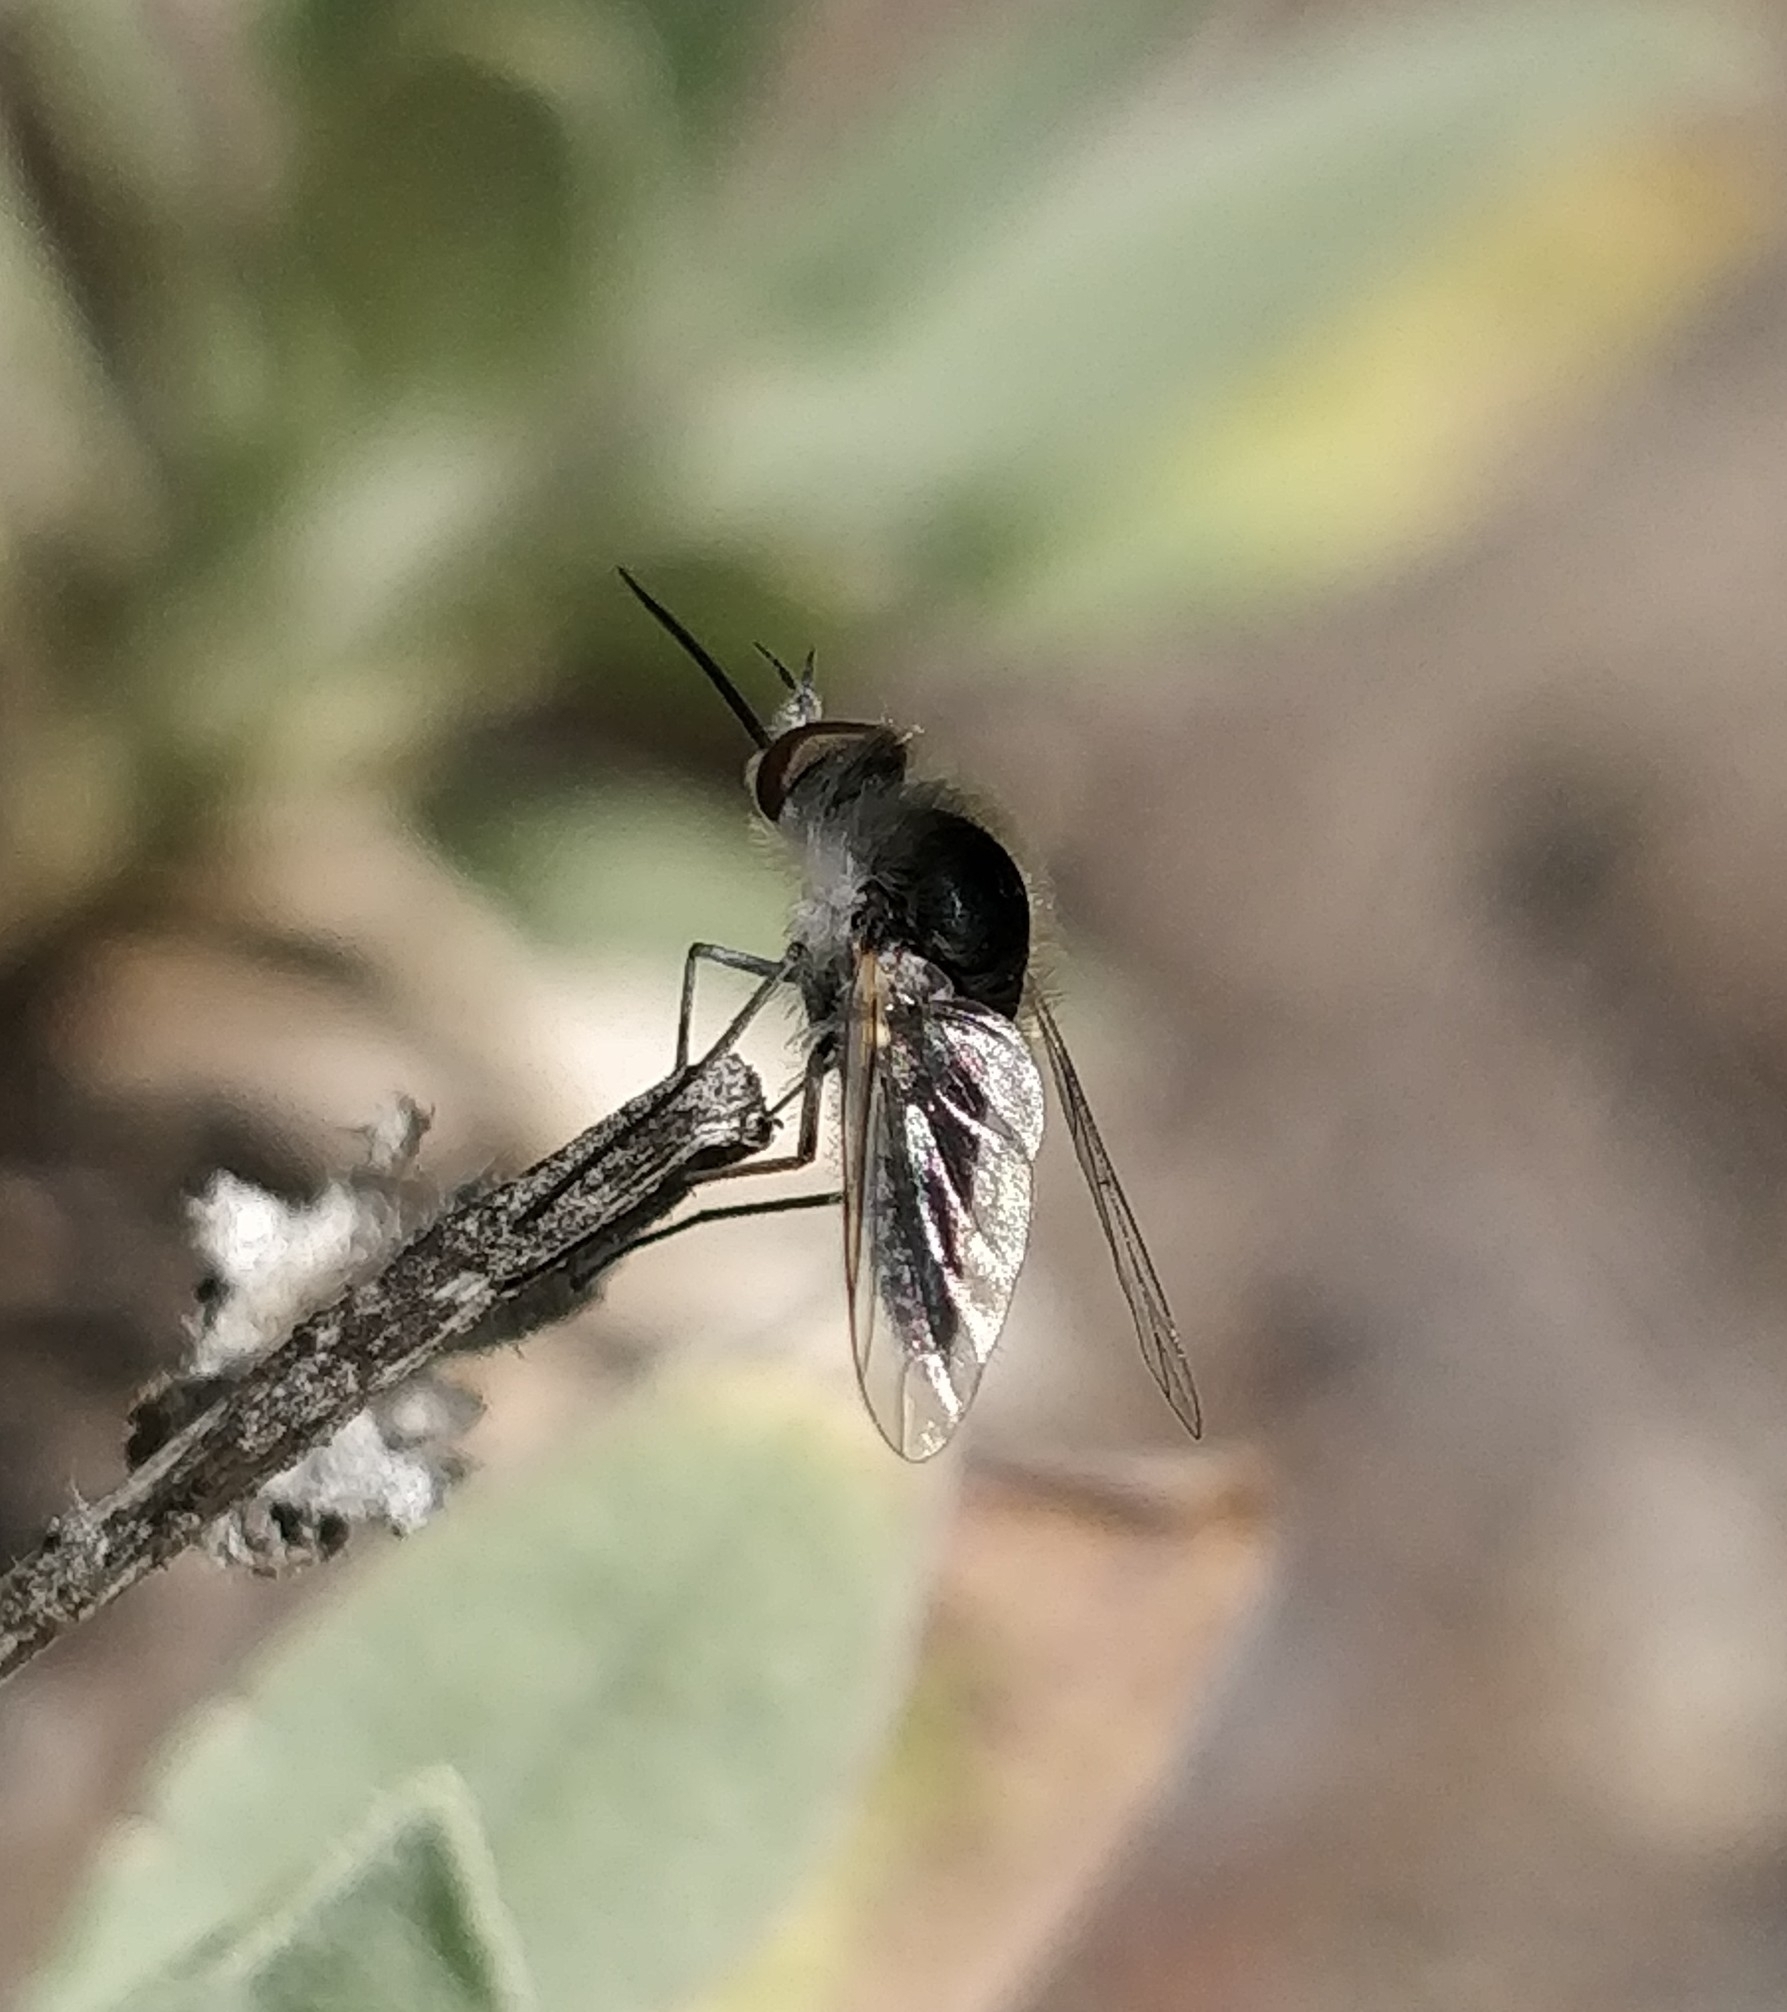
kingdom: Animalia
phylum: Arthropoda
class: Insecta
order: Diptera
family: Bombyliidae
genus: Geron
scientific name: Geron hesperidum
